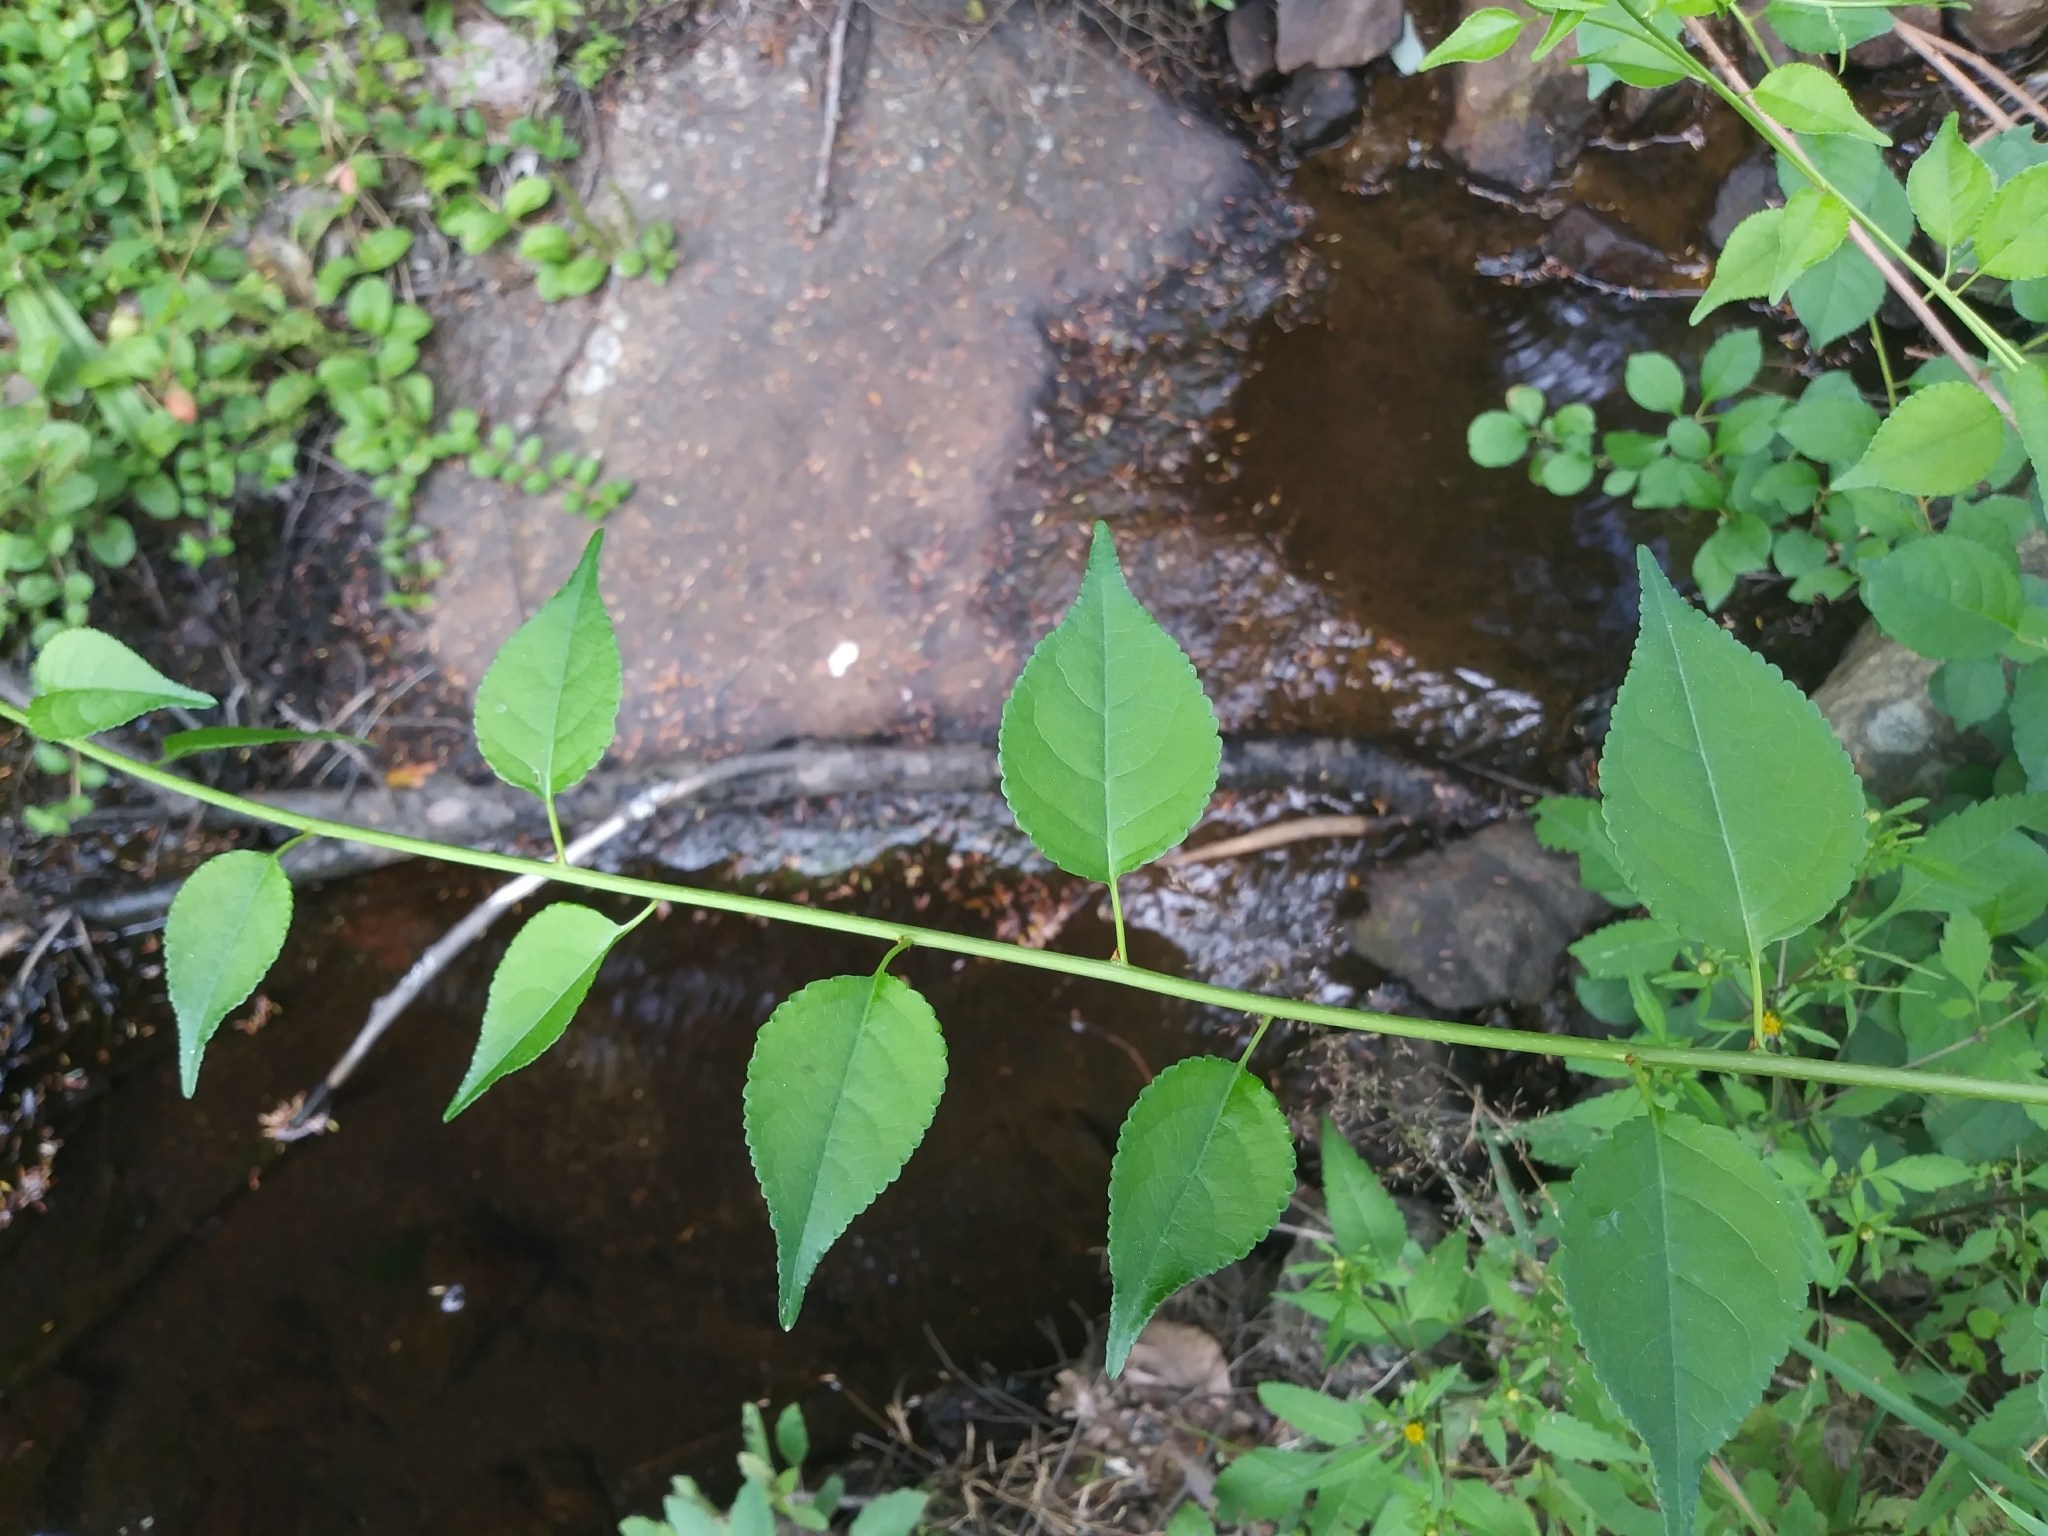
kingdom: Plantae
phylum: Tracheophyta
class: Magnoliopsida
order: Celastrales
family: Celastraceae
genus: Celastrus
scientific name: Celastrus orbiculatus
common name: Oriental bittersweet
